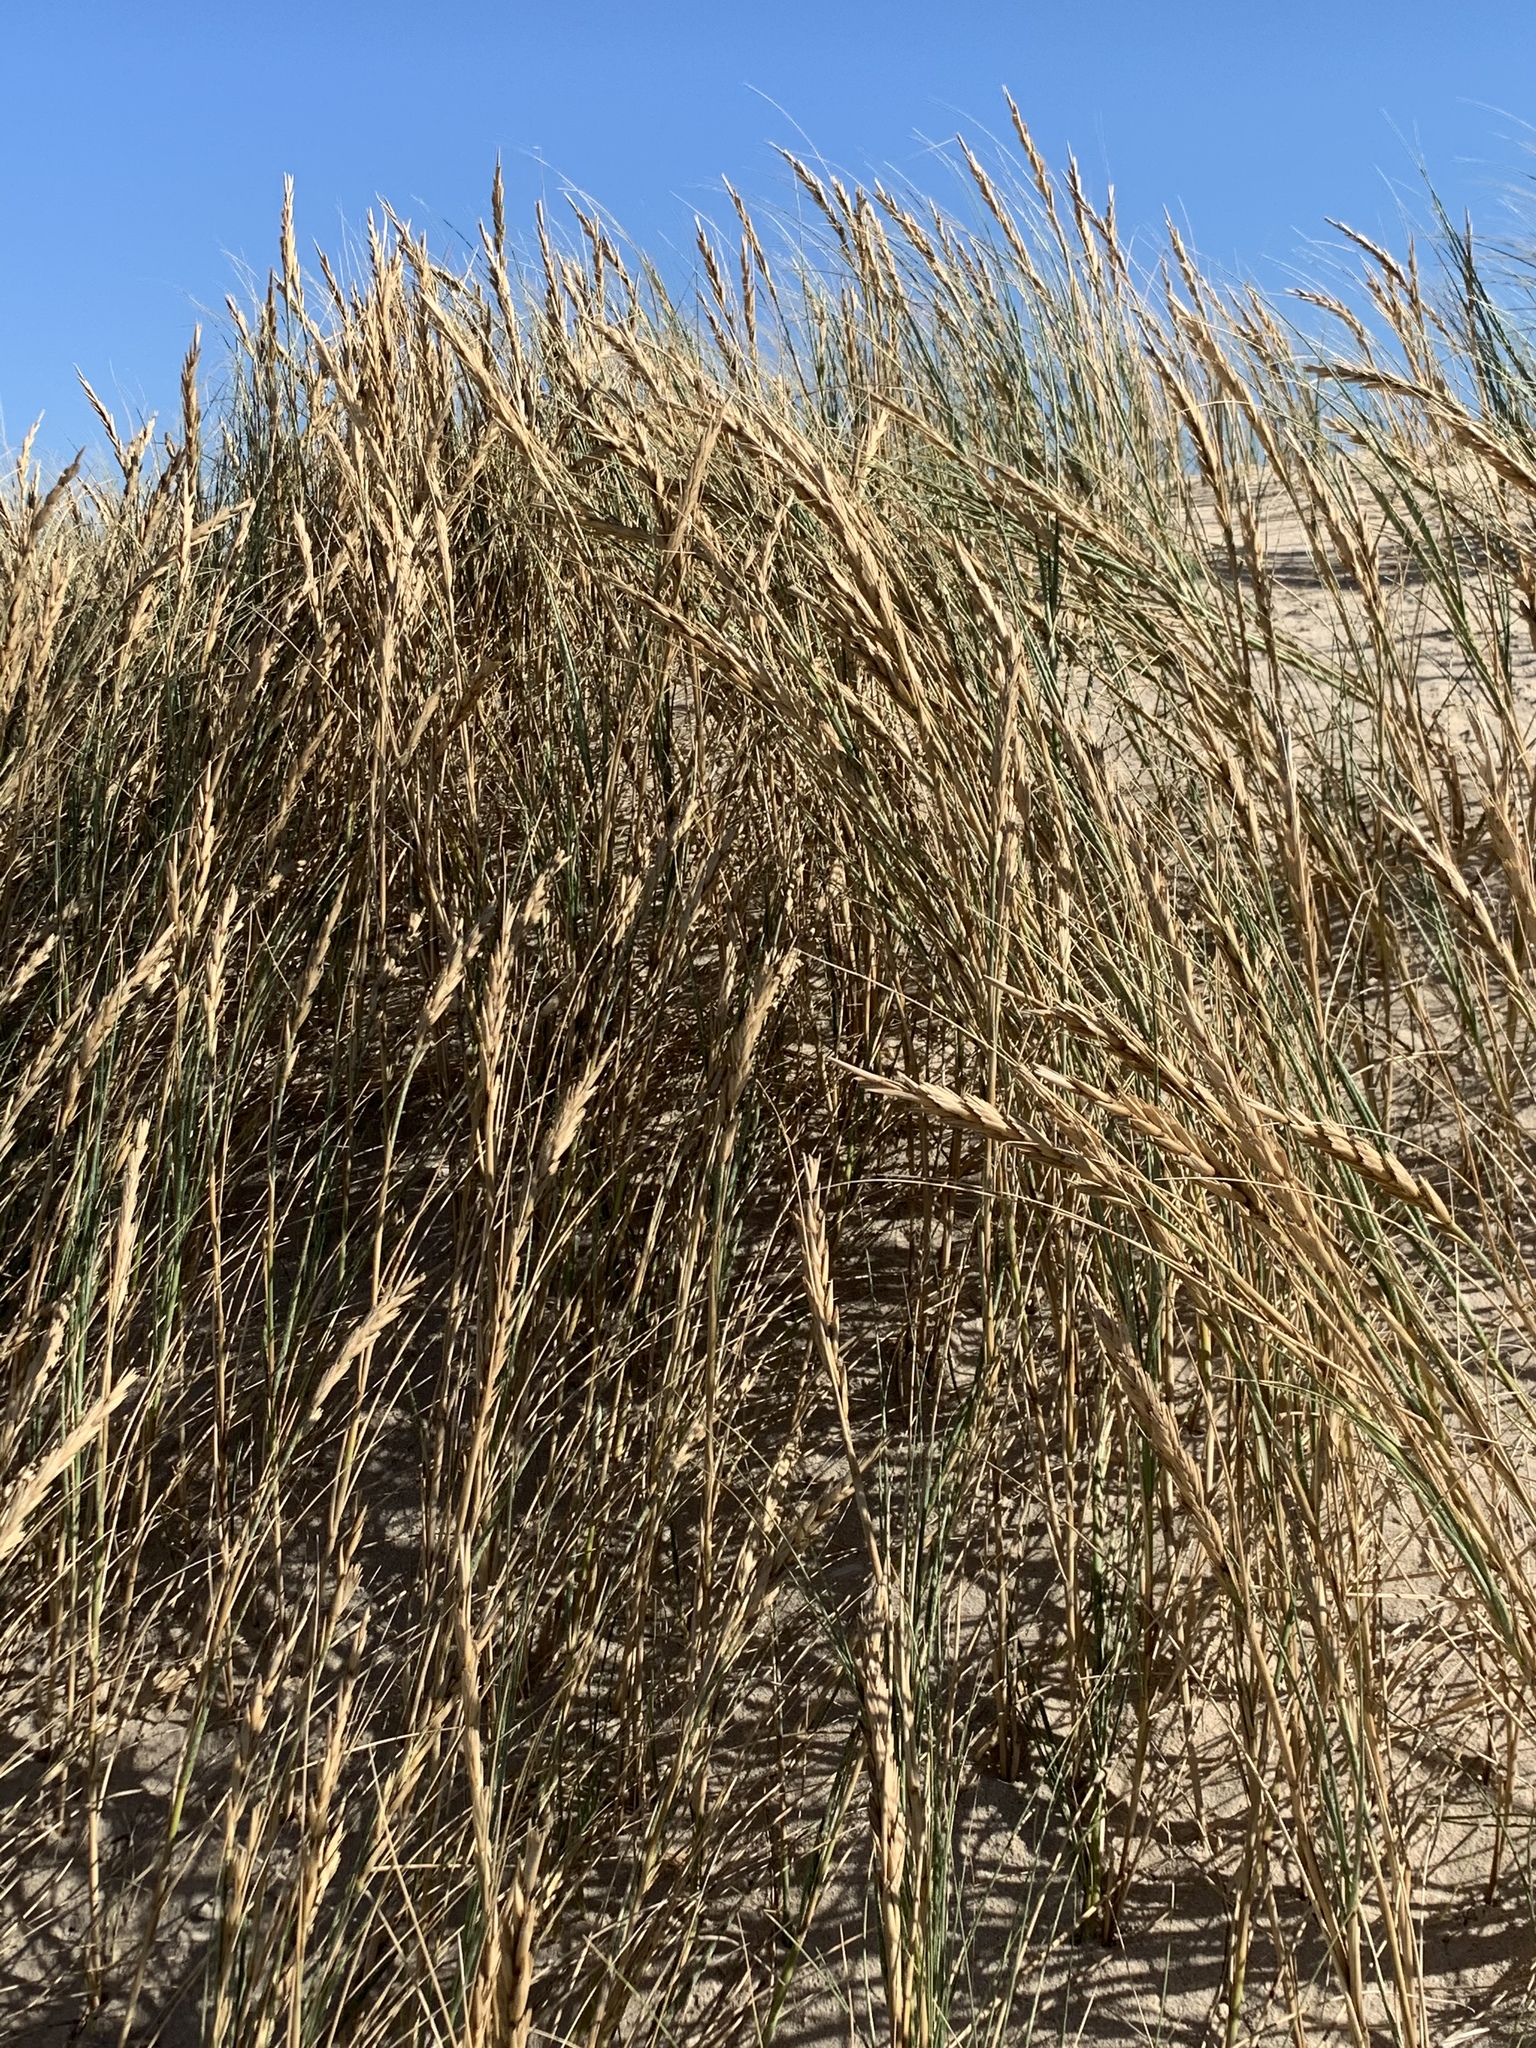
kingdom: Plantae
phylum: Tracheophyta
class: Liliopsida
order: Poales
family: Poaceae
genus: Thinopyrum
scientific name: Thinopyrum distichum
